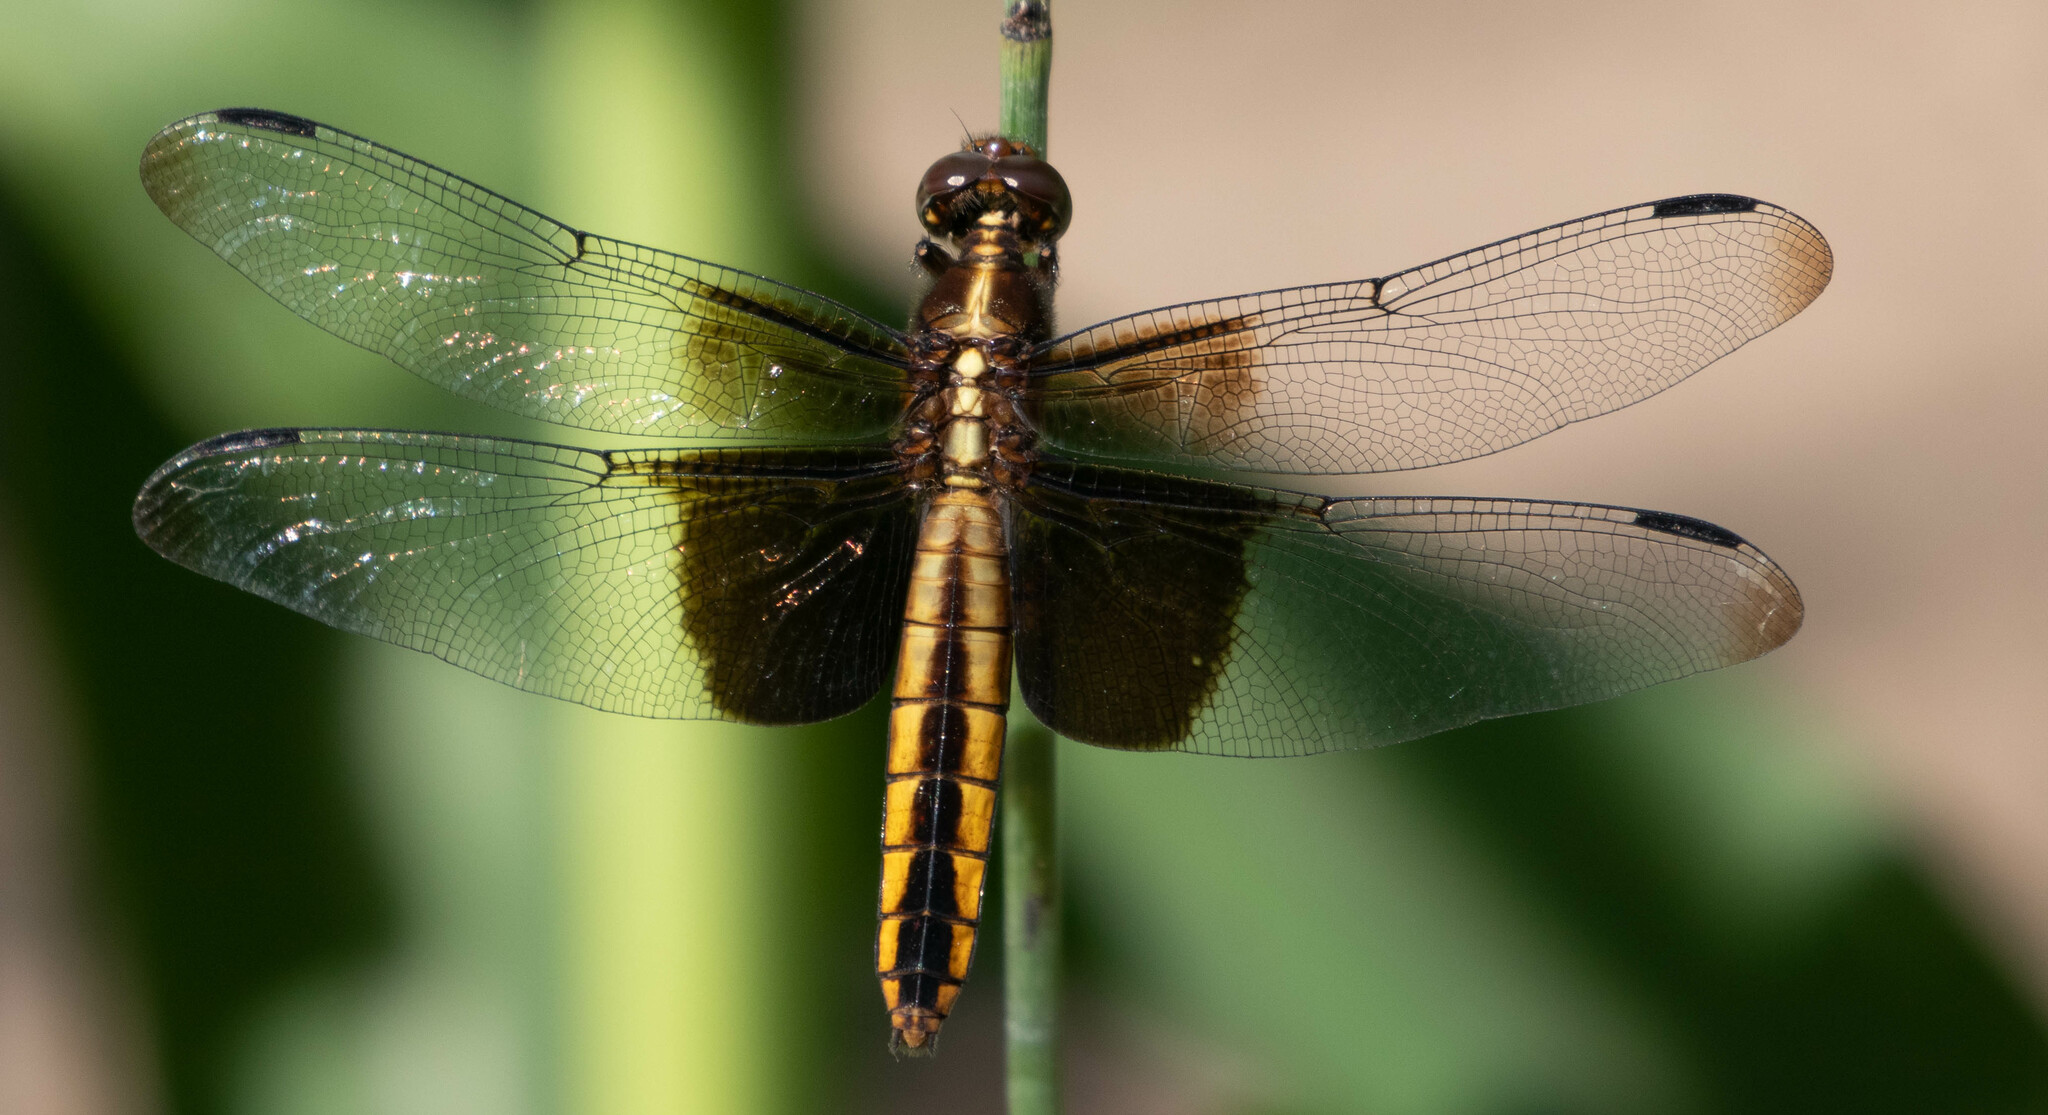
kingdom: Animalia
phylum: Arthropoda
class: Insecta
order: Odonata
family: Libellulidae
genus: Libellula
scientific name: Libellula luctuosa
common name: Widow skimmer
